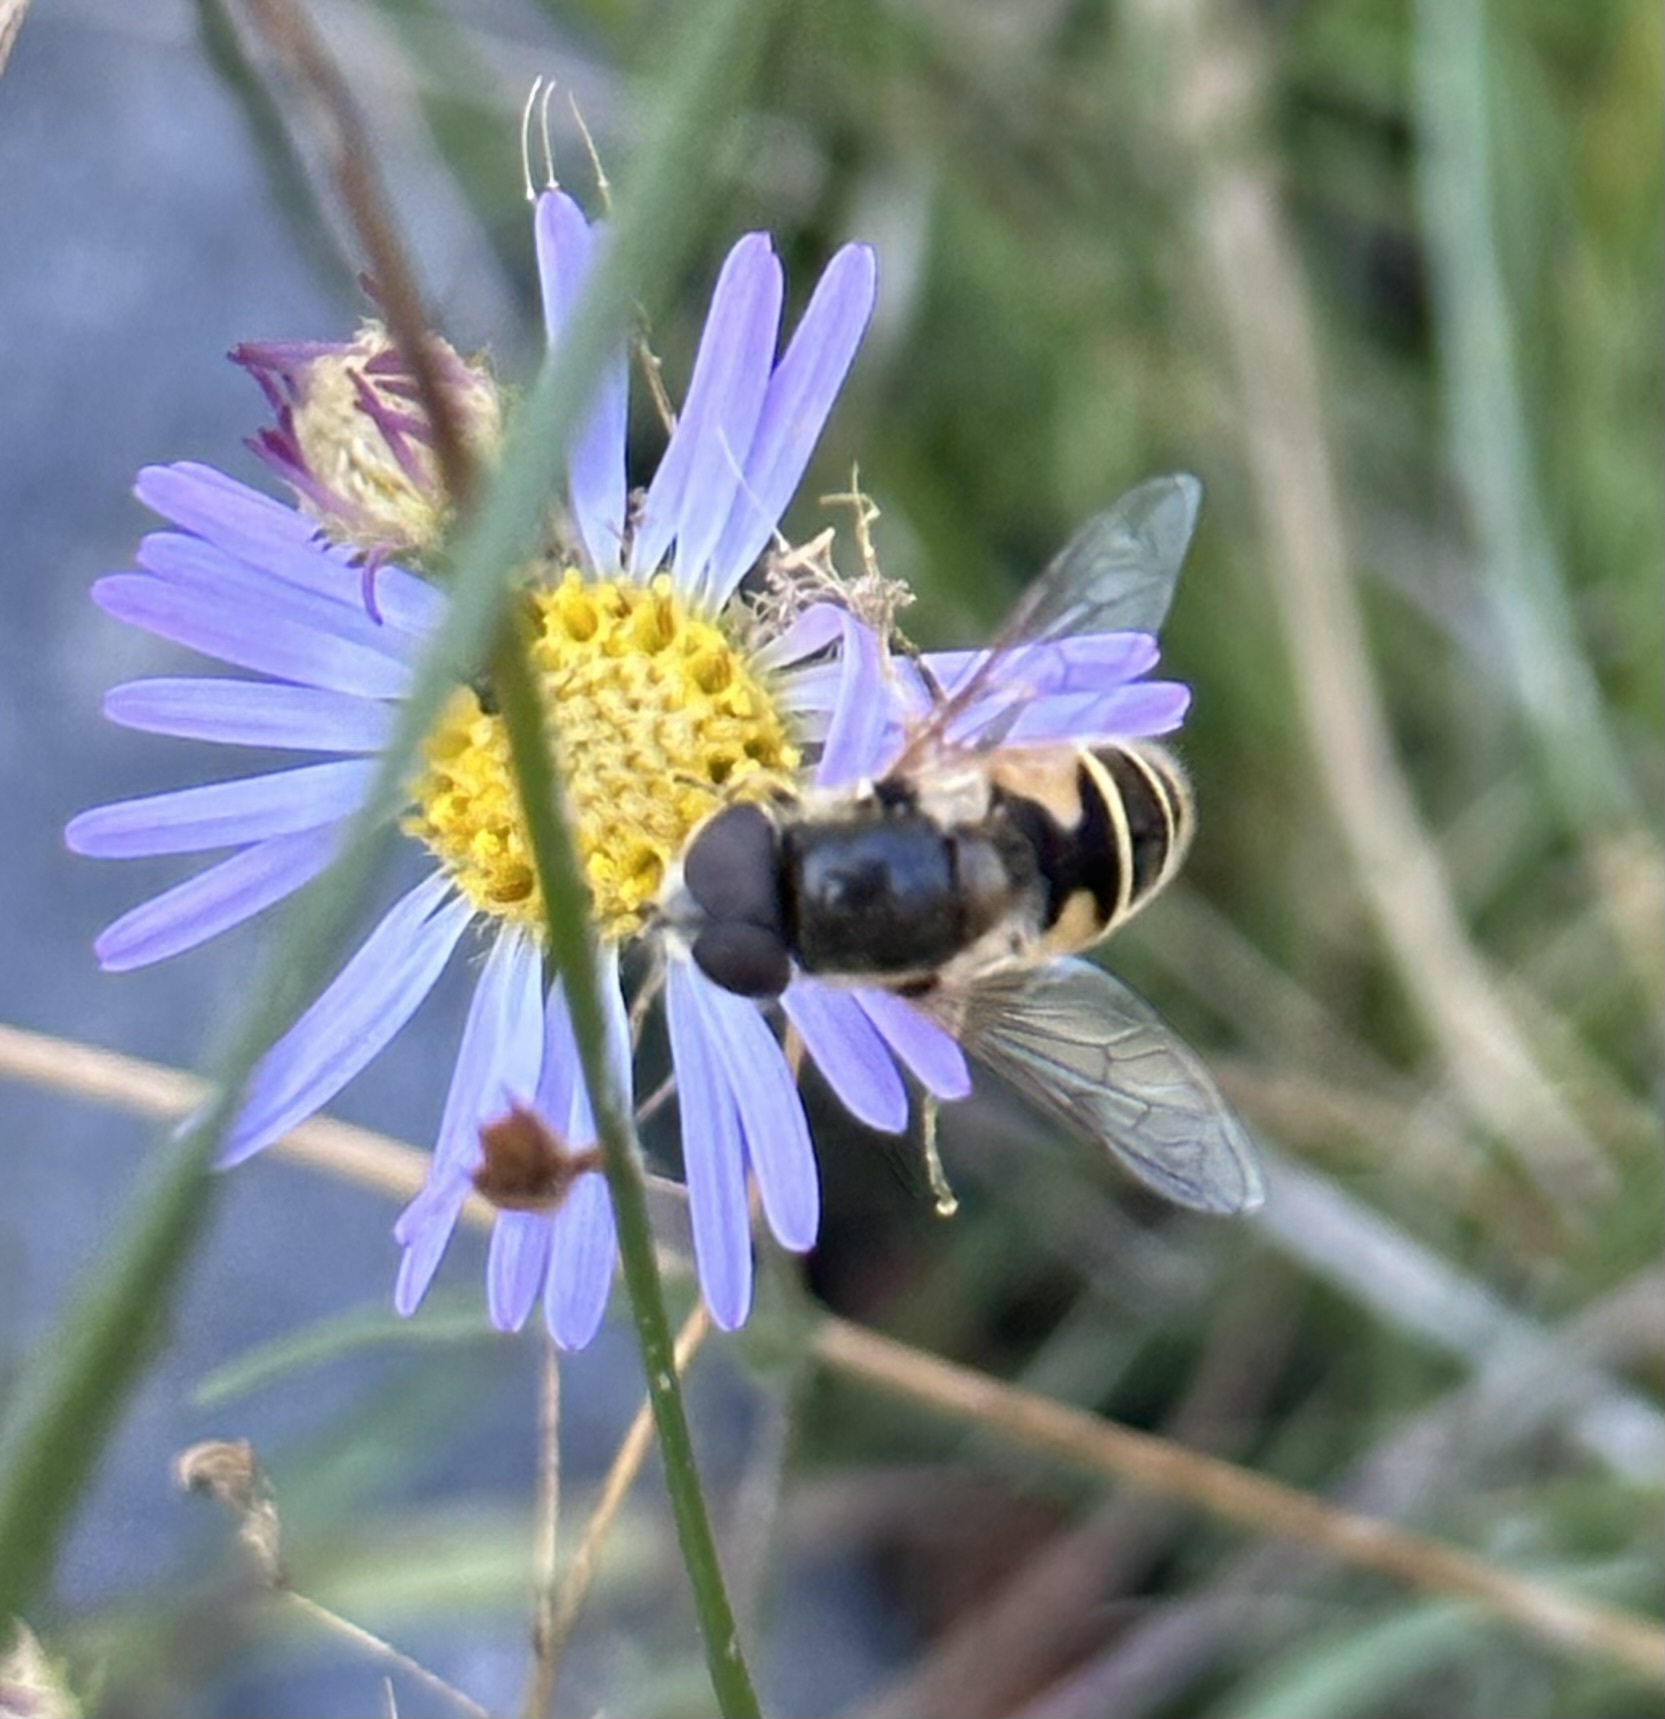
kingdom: Animalia
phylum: Arthropoda
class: Insecta
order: Diptera
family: Syrphidae
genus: Eristalis
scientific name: Eristalis hirta
